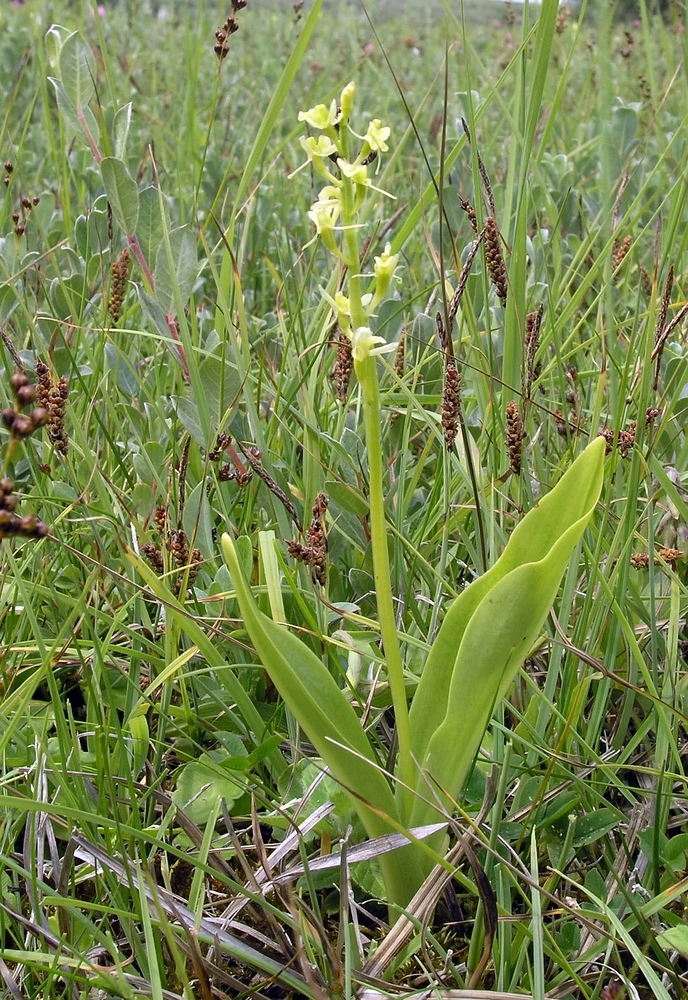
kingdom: Animalia
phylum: Arthropoda
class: Insecta
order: Coleoptera
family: Curculionidae
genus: Liparis
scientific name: Liparis loeselii
